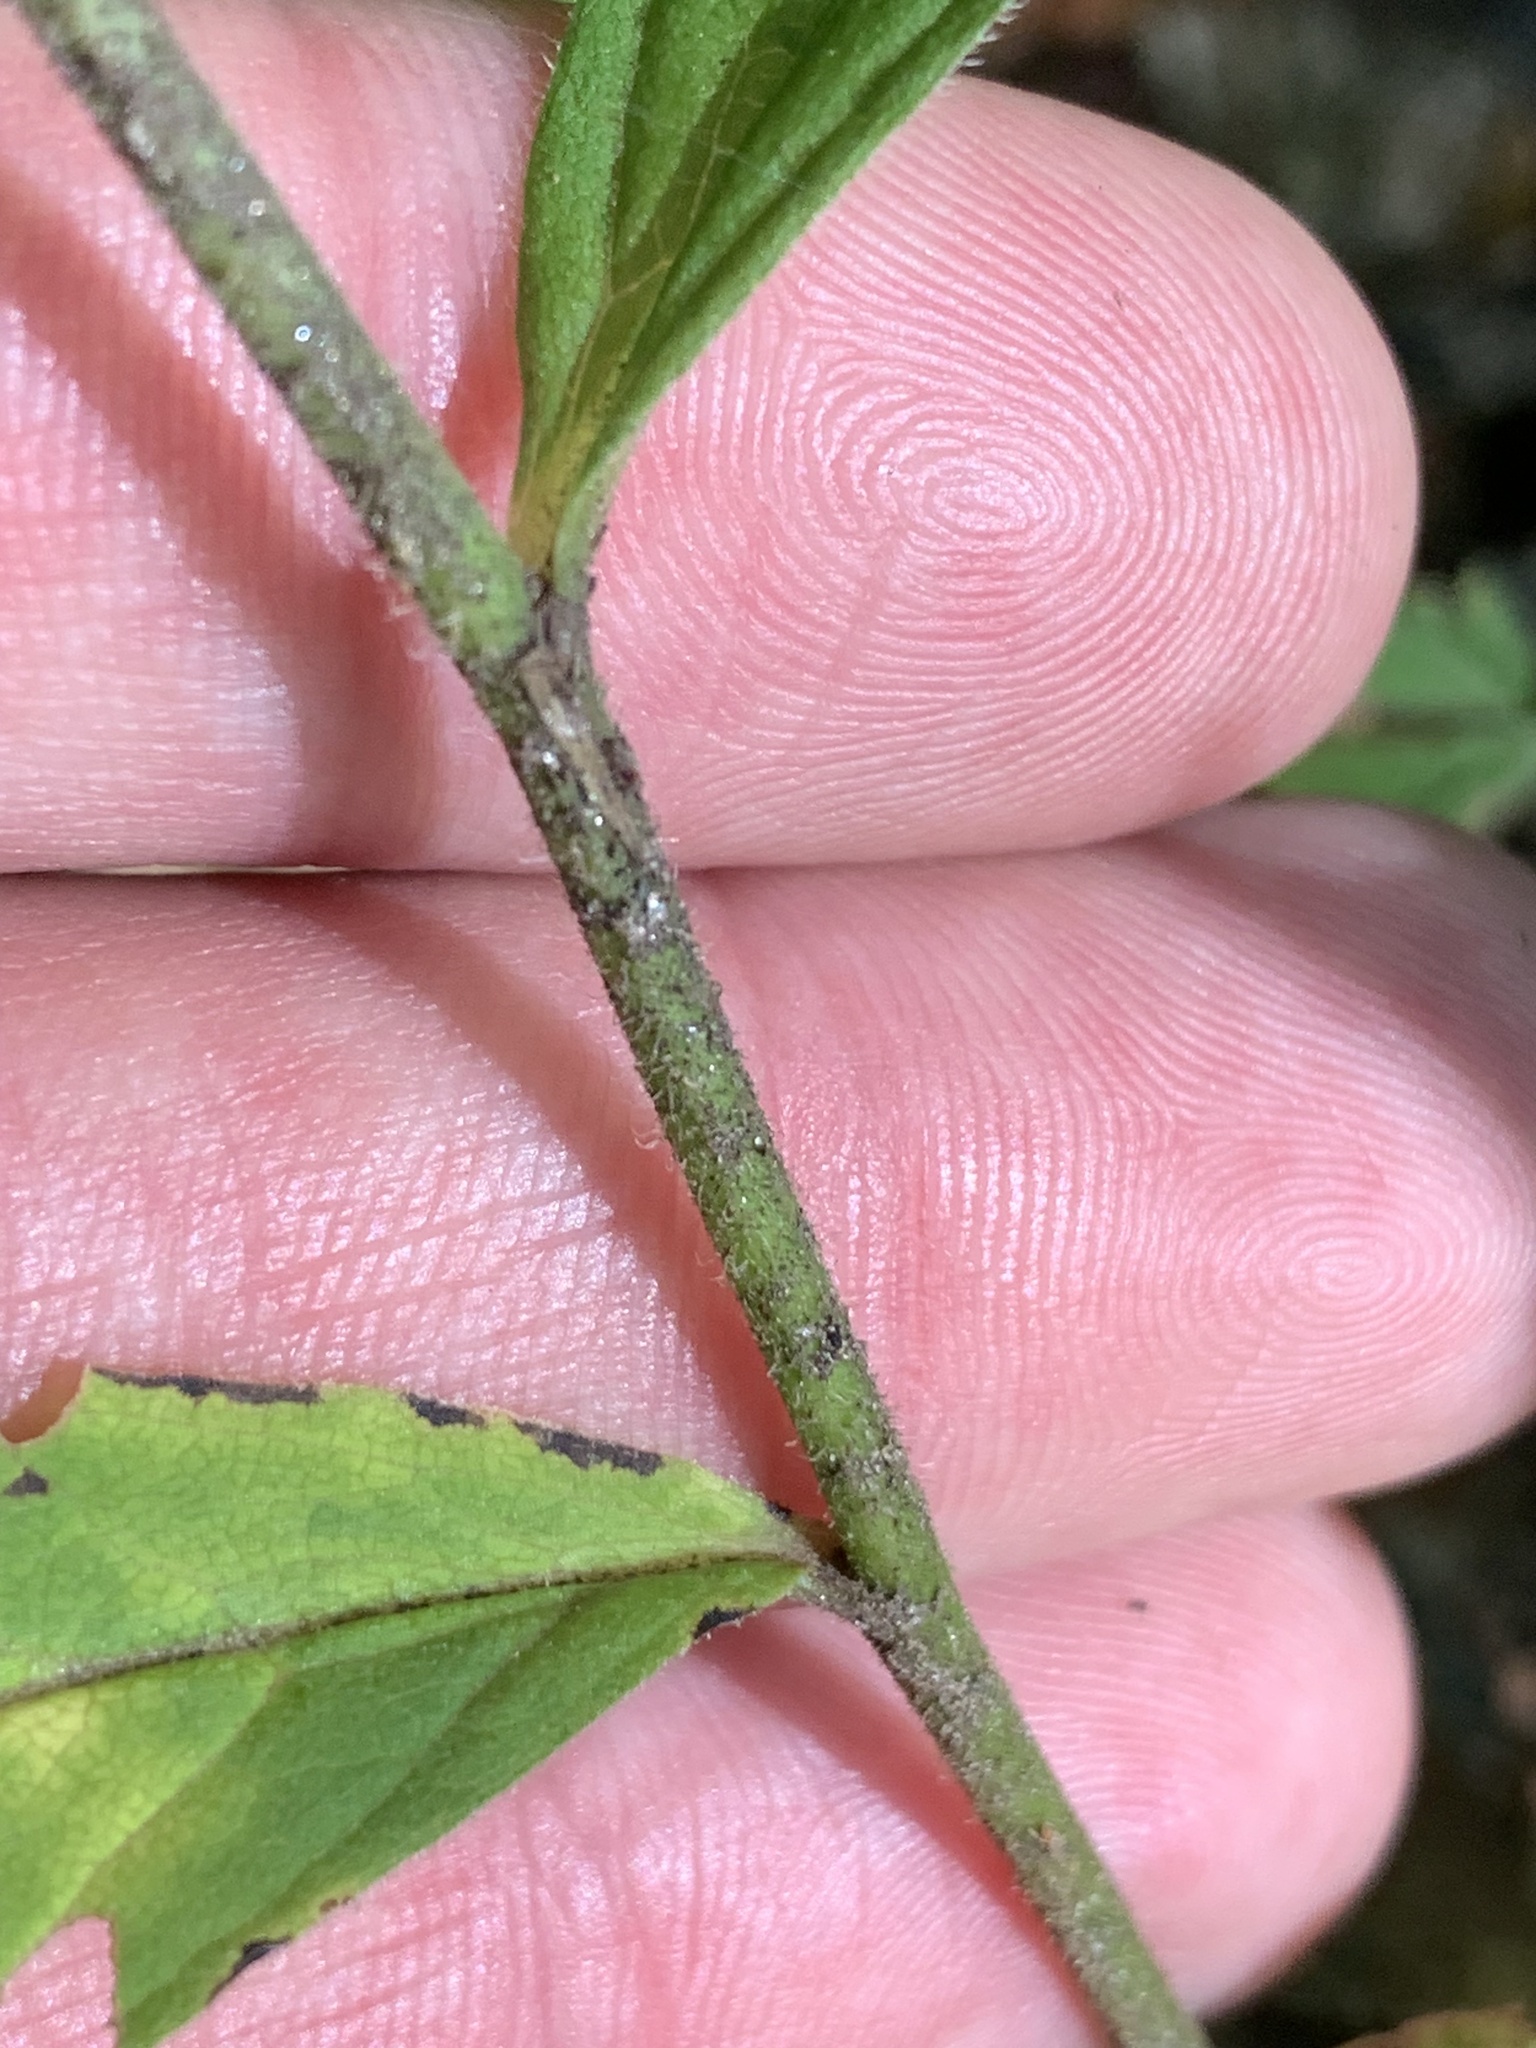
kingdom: Plantae
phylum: Tracheophyta
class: Magnoliopsida
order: Asterales
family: Asteraceae
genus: Oclemena
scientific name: Oclemena acuminata
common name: Mountain aster
